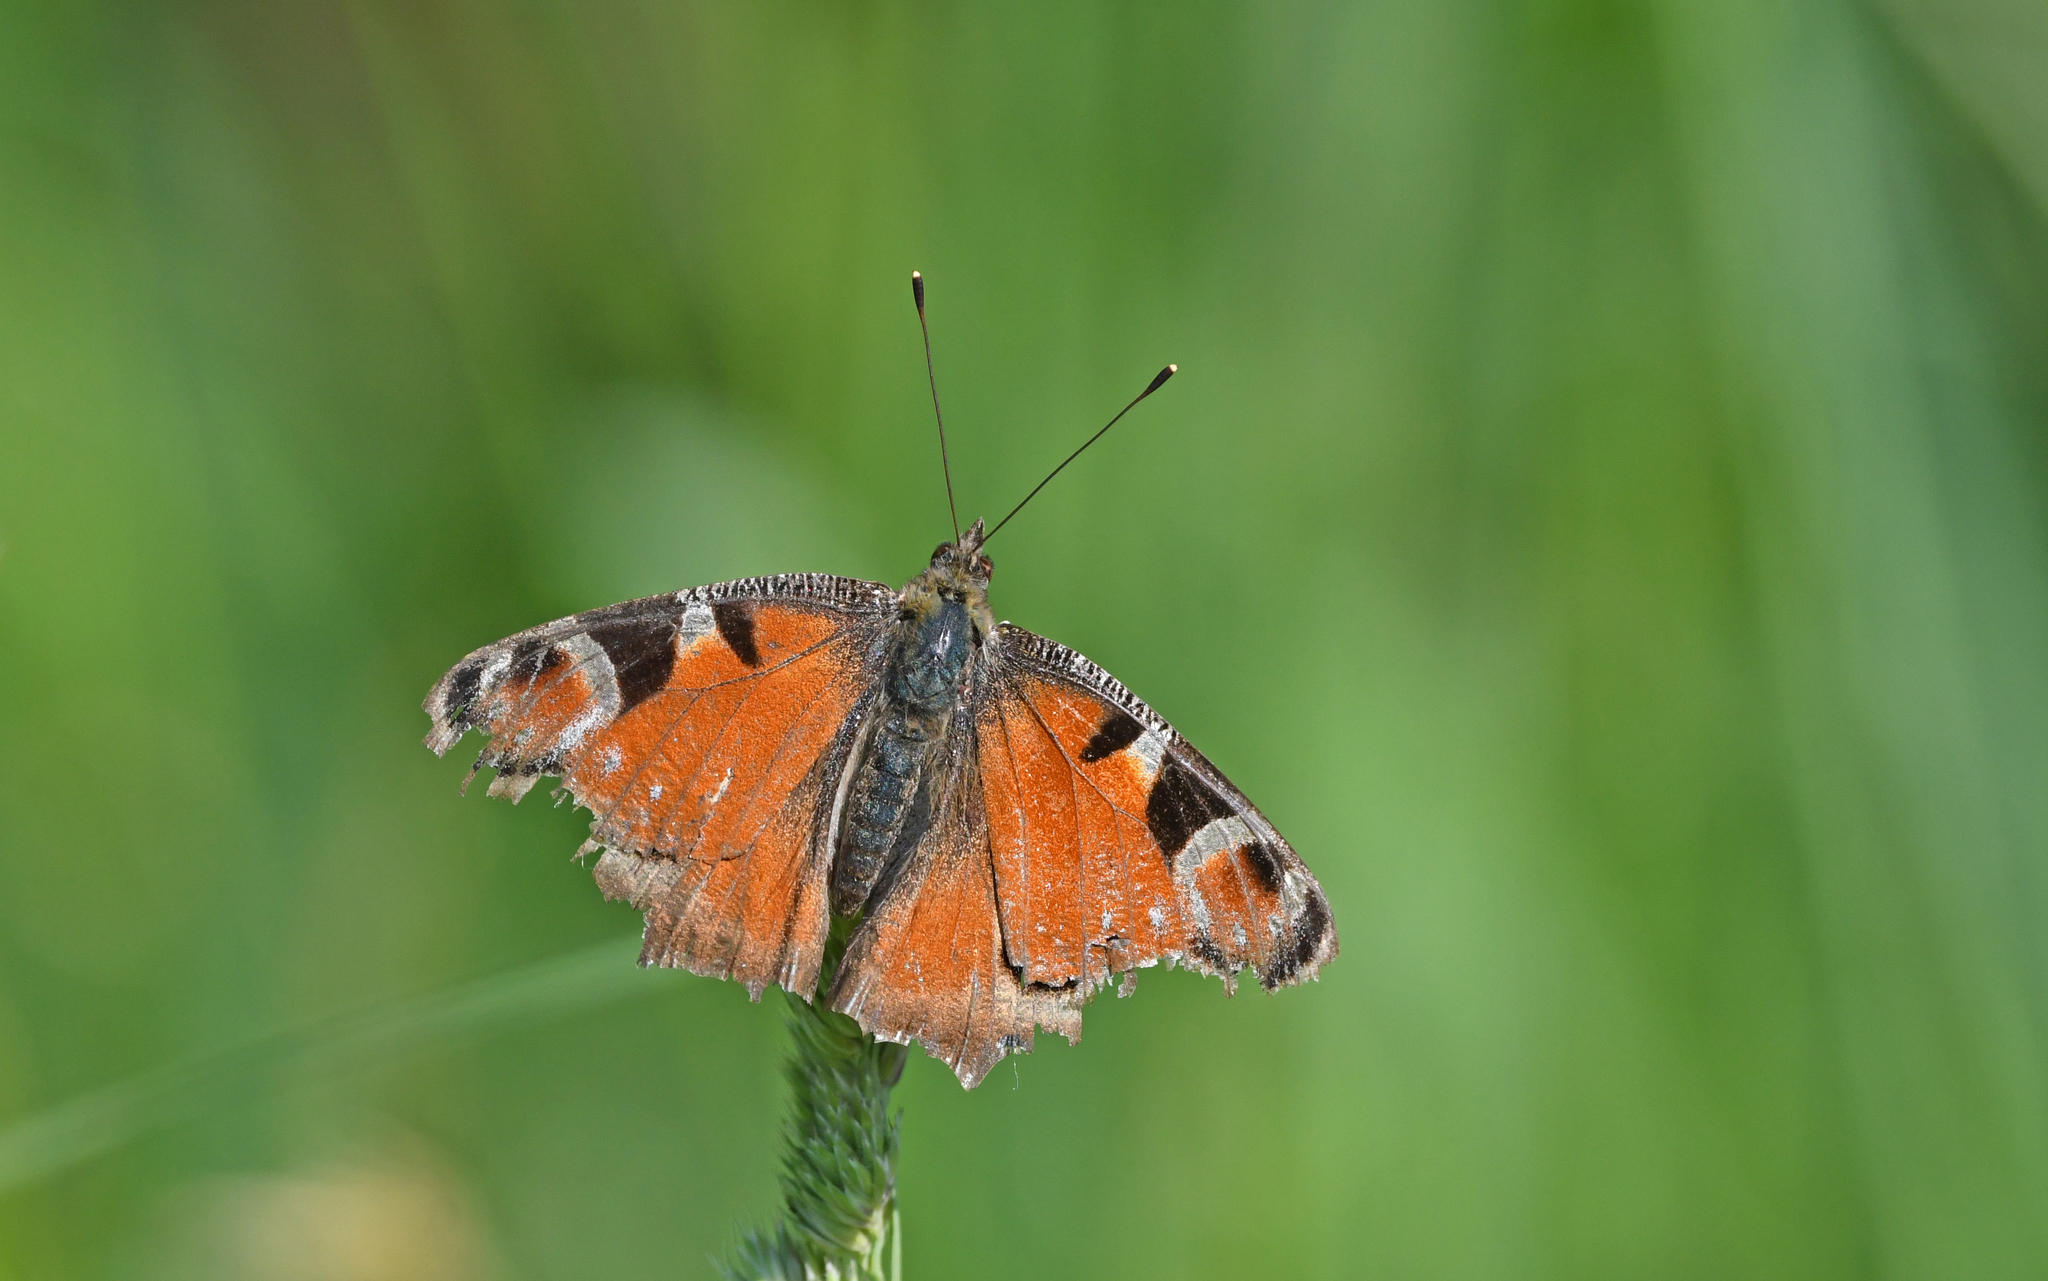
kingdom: Animalia
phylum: Arthropoda
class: Insecta
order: Lepidoptera
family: Nymphalidae
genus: Aglais
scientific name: Aglais io
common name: Peacock
